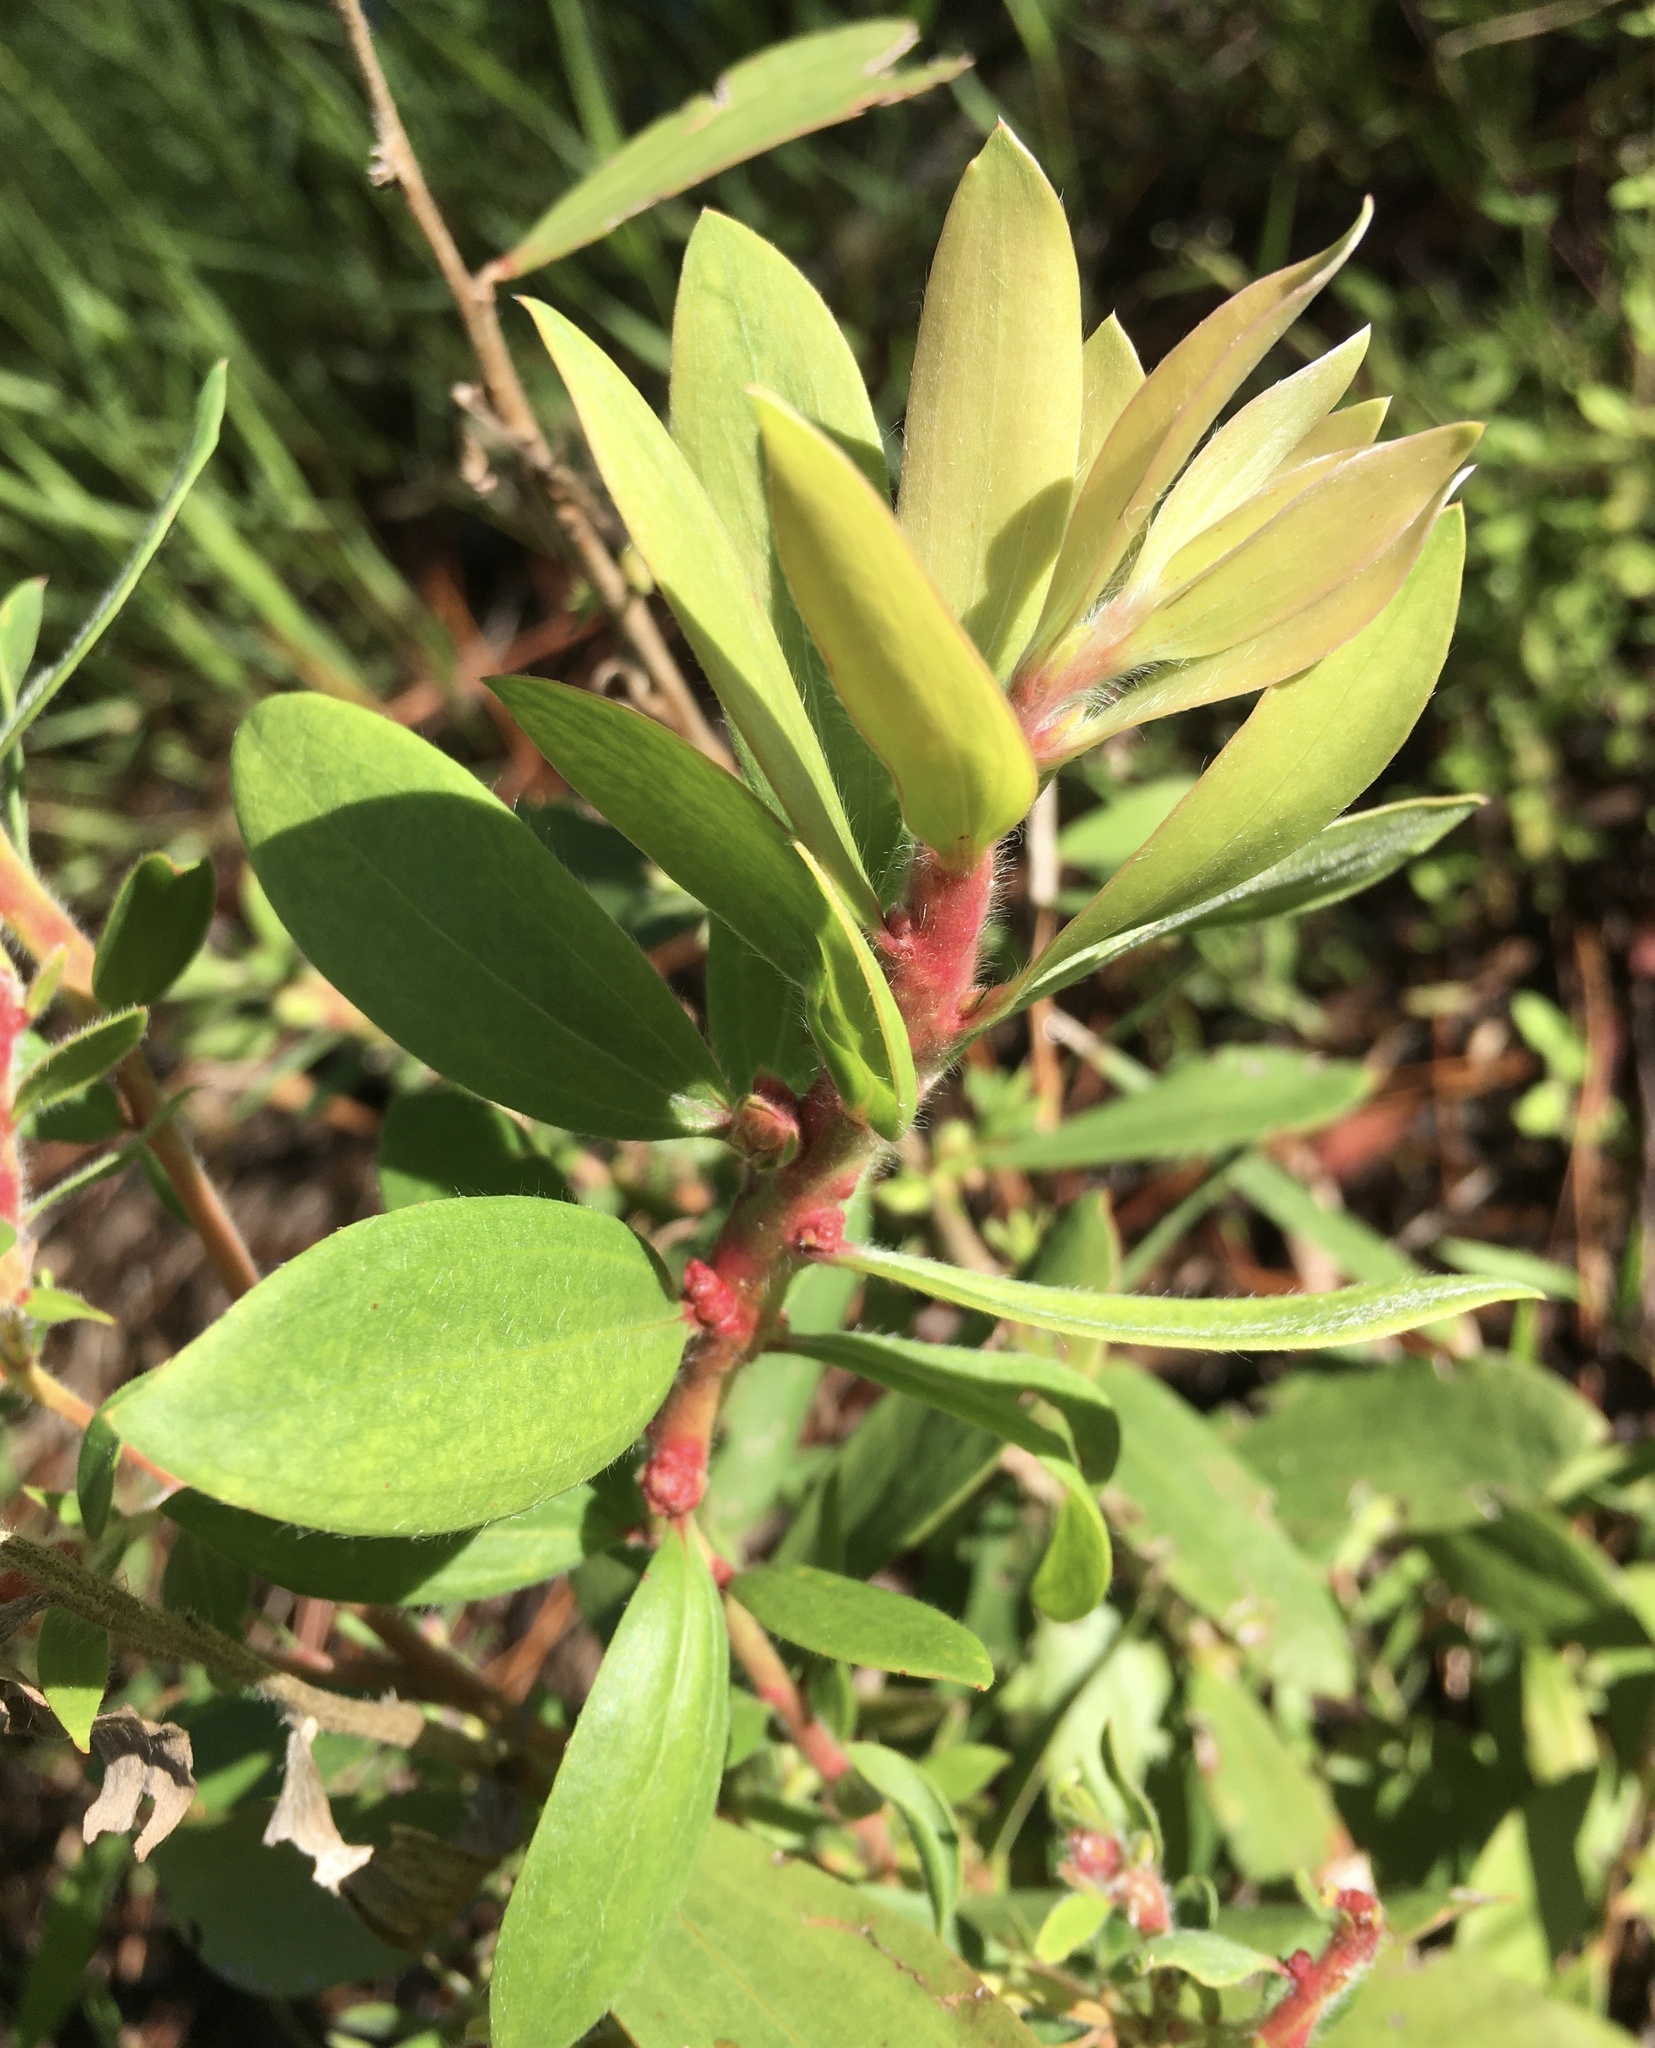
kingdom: Plantae
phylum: Tracheophyta
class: Magnoliopsida
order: Myrtales
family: Myrtaceae
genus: Melaleuca
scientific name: Melaleuca quinquenervia
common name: Punktree
